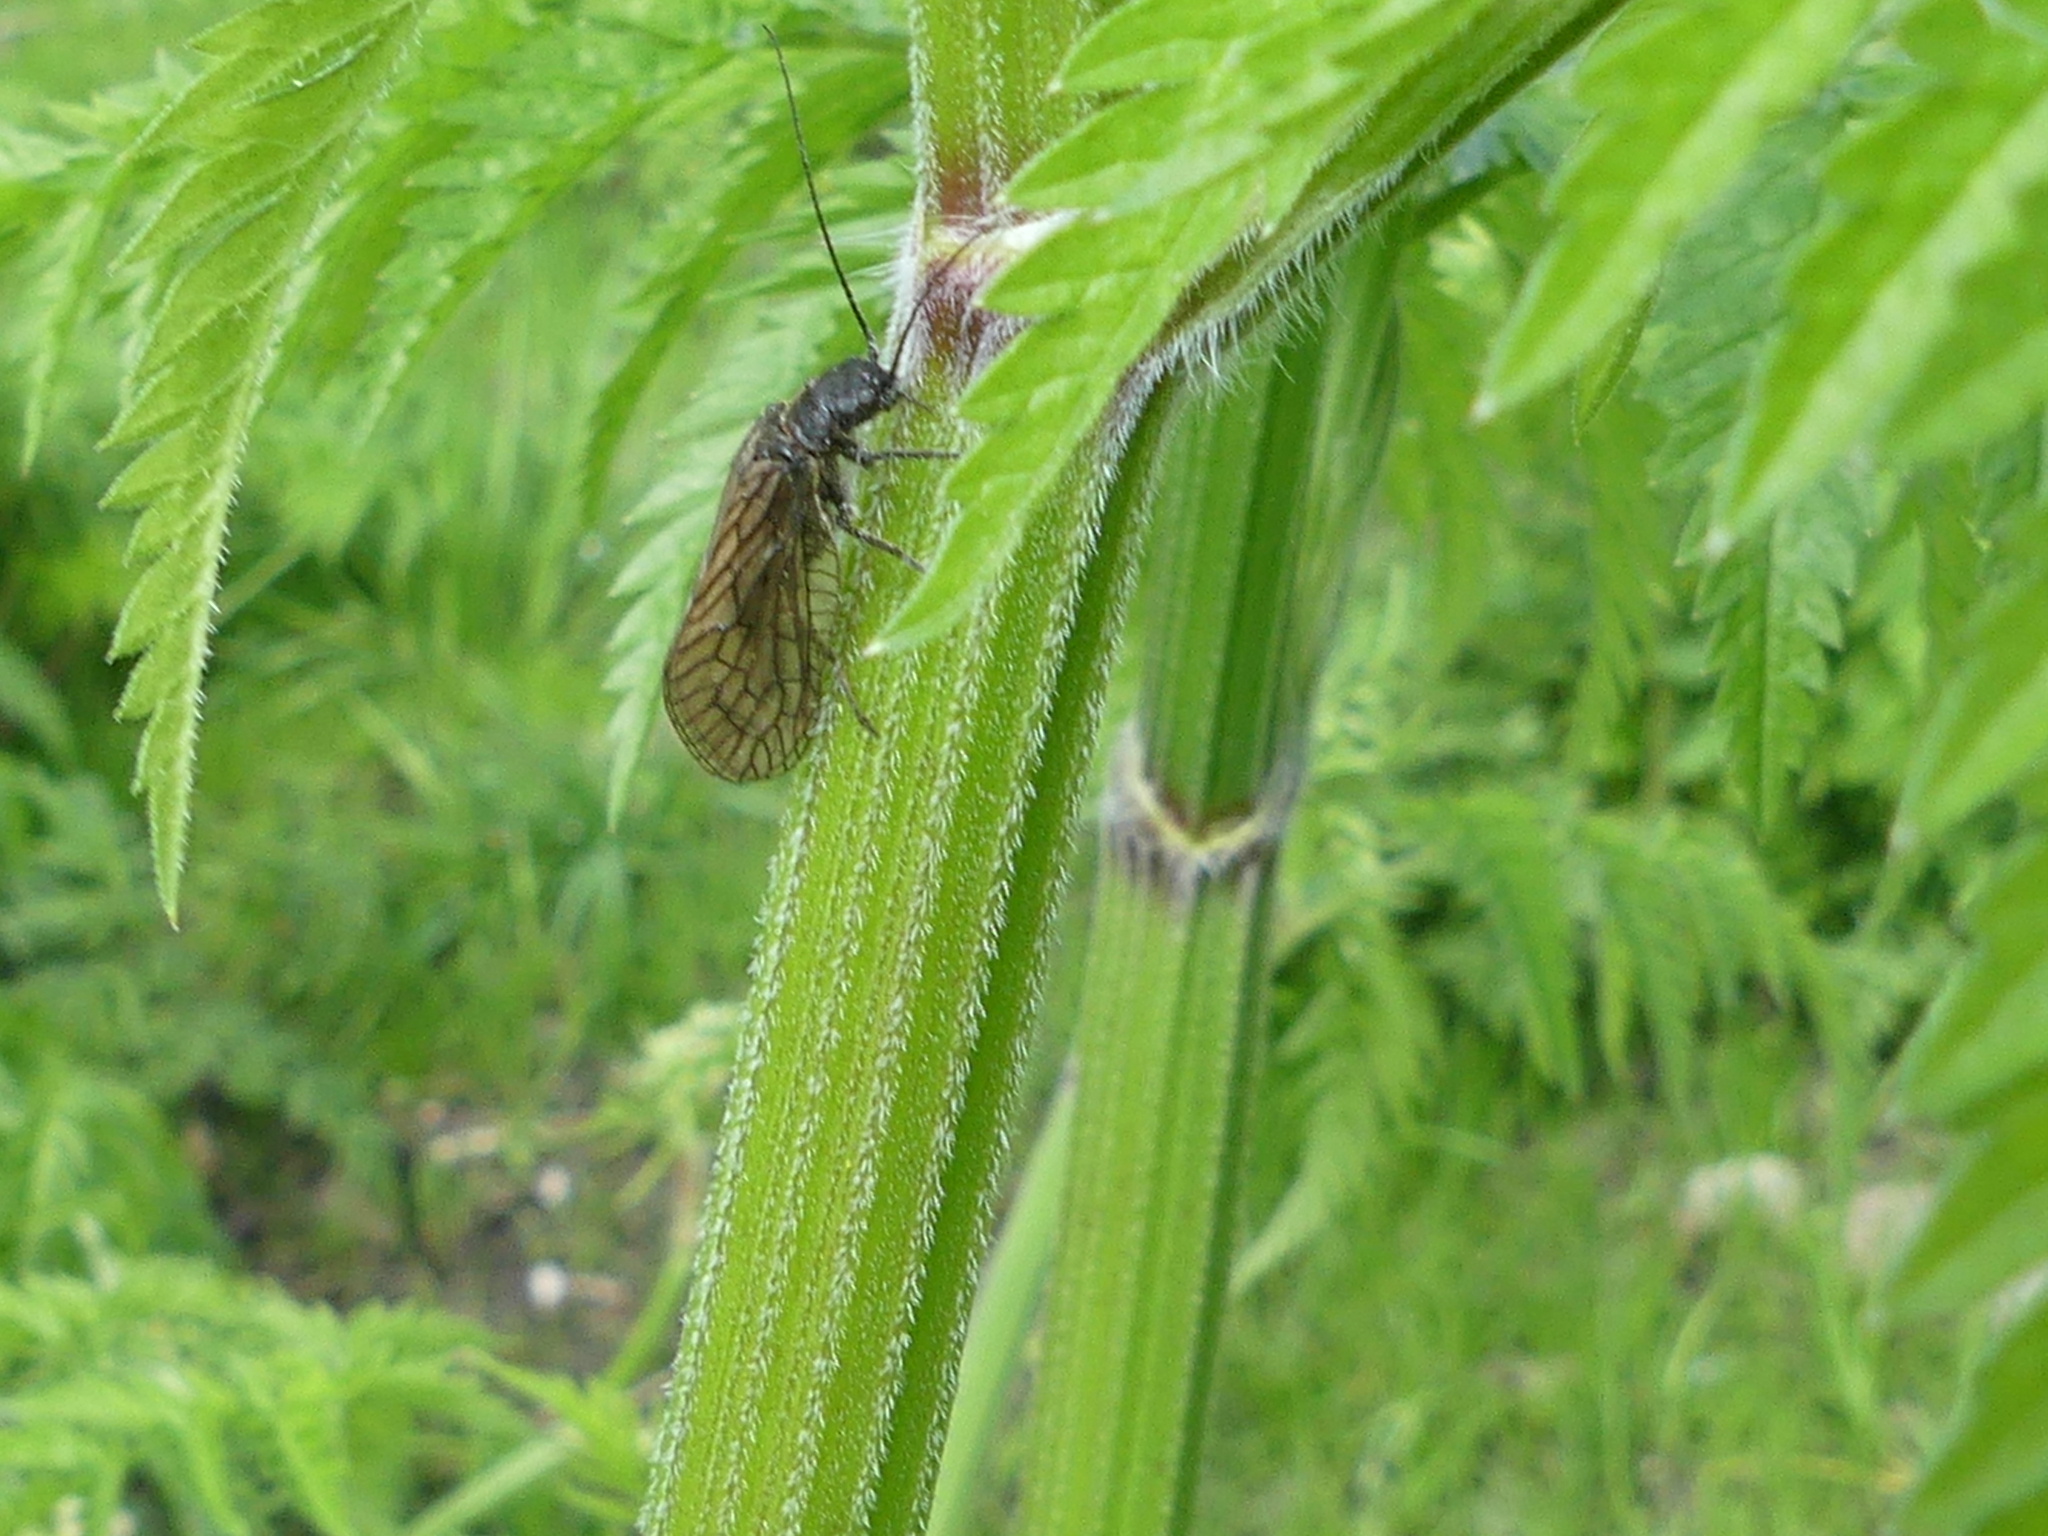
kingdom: Animalia
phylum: Arthropoda
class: Insecta
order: Megaloptera
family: Sialidae
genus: Sialis
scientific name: Sialis
